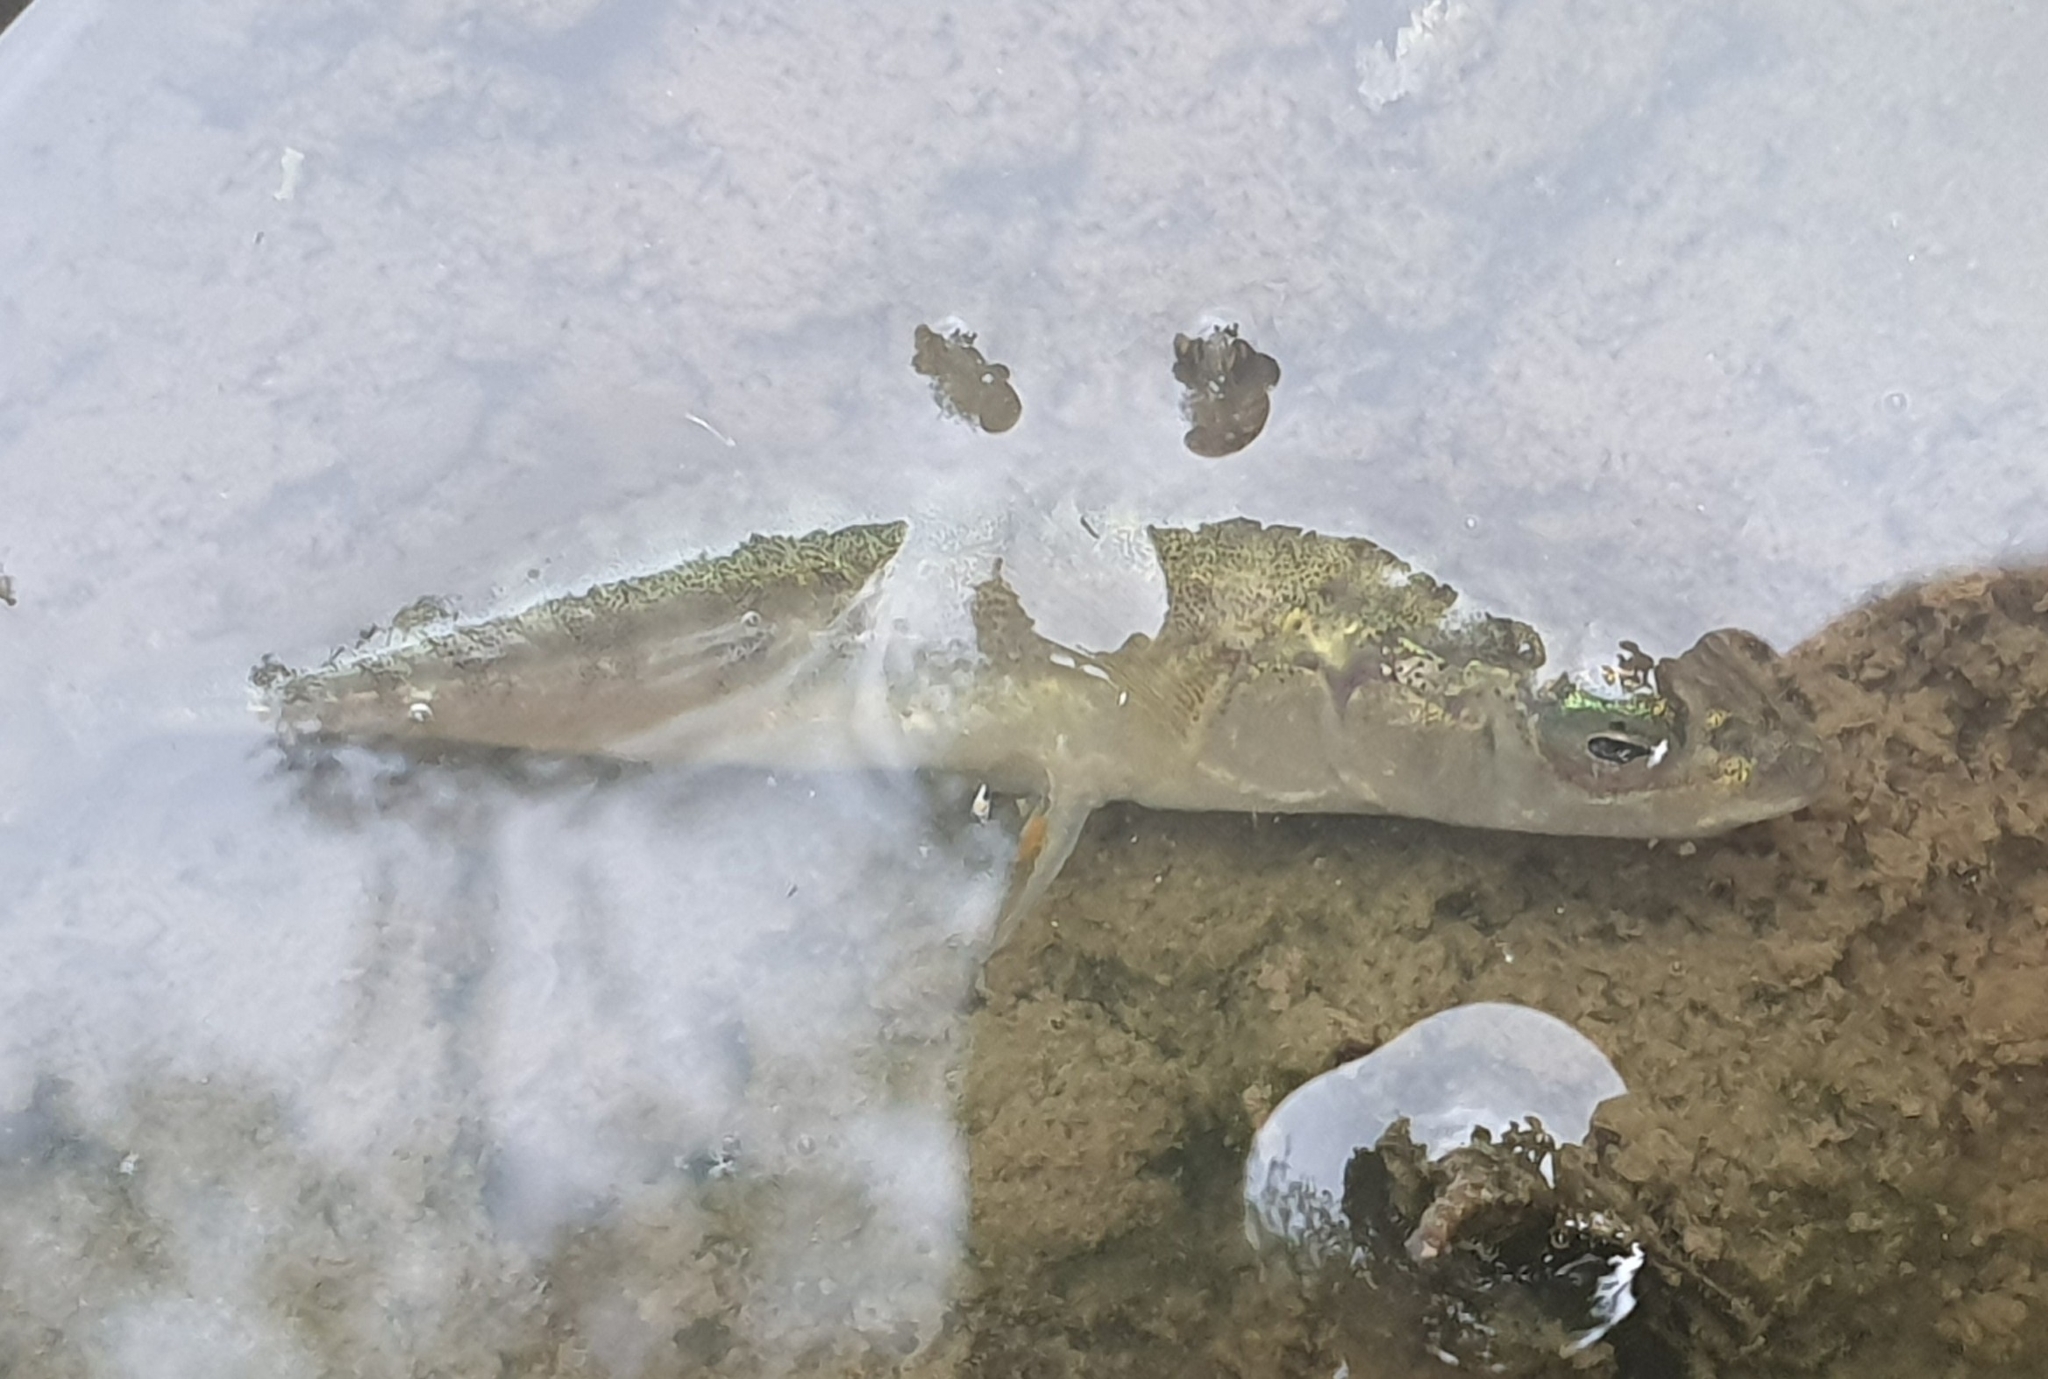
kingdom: Animalia
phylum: Chordata
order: Gasterosteiformes
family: Gasterosteidae
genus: Gasterosteus
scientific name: Gasterosteus aculeatus
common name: Three-spined stickleback
